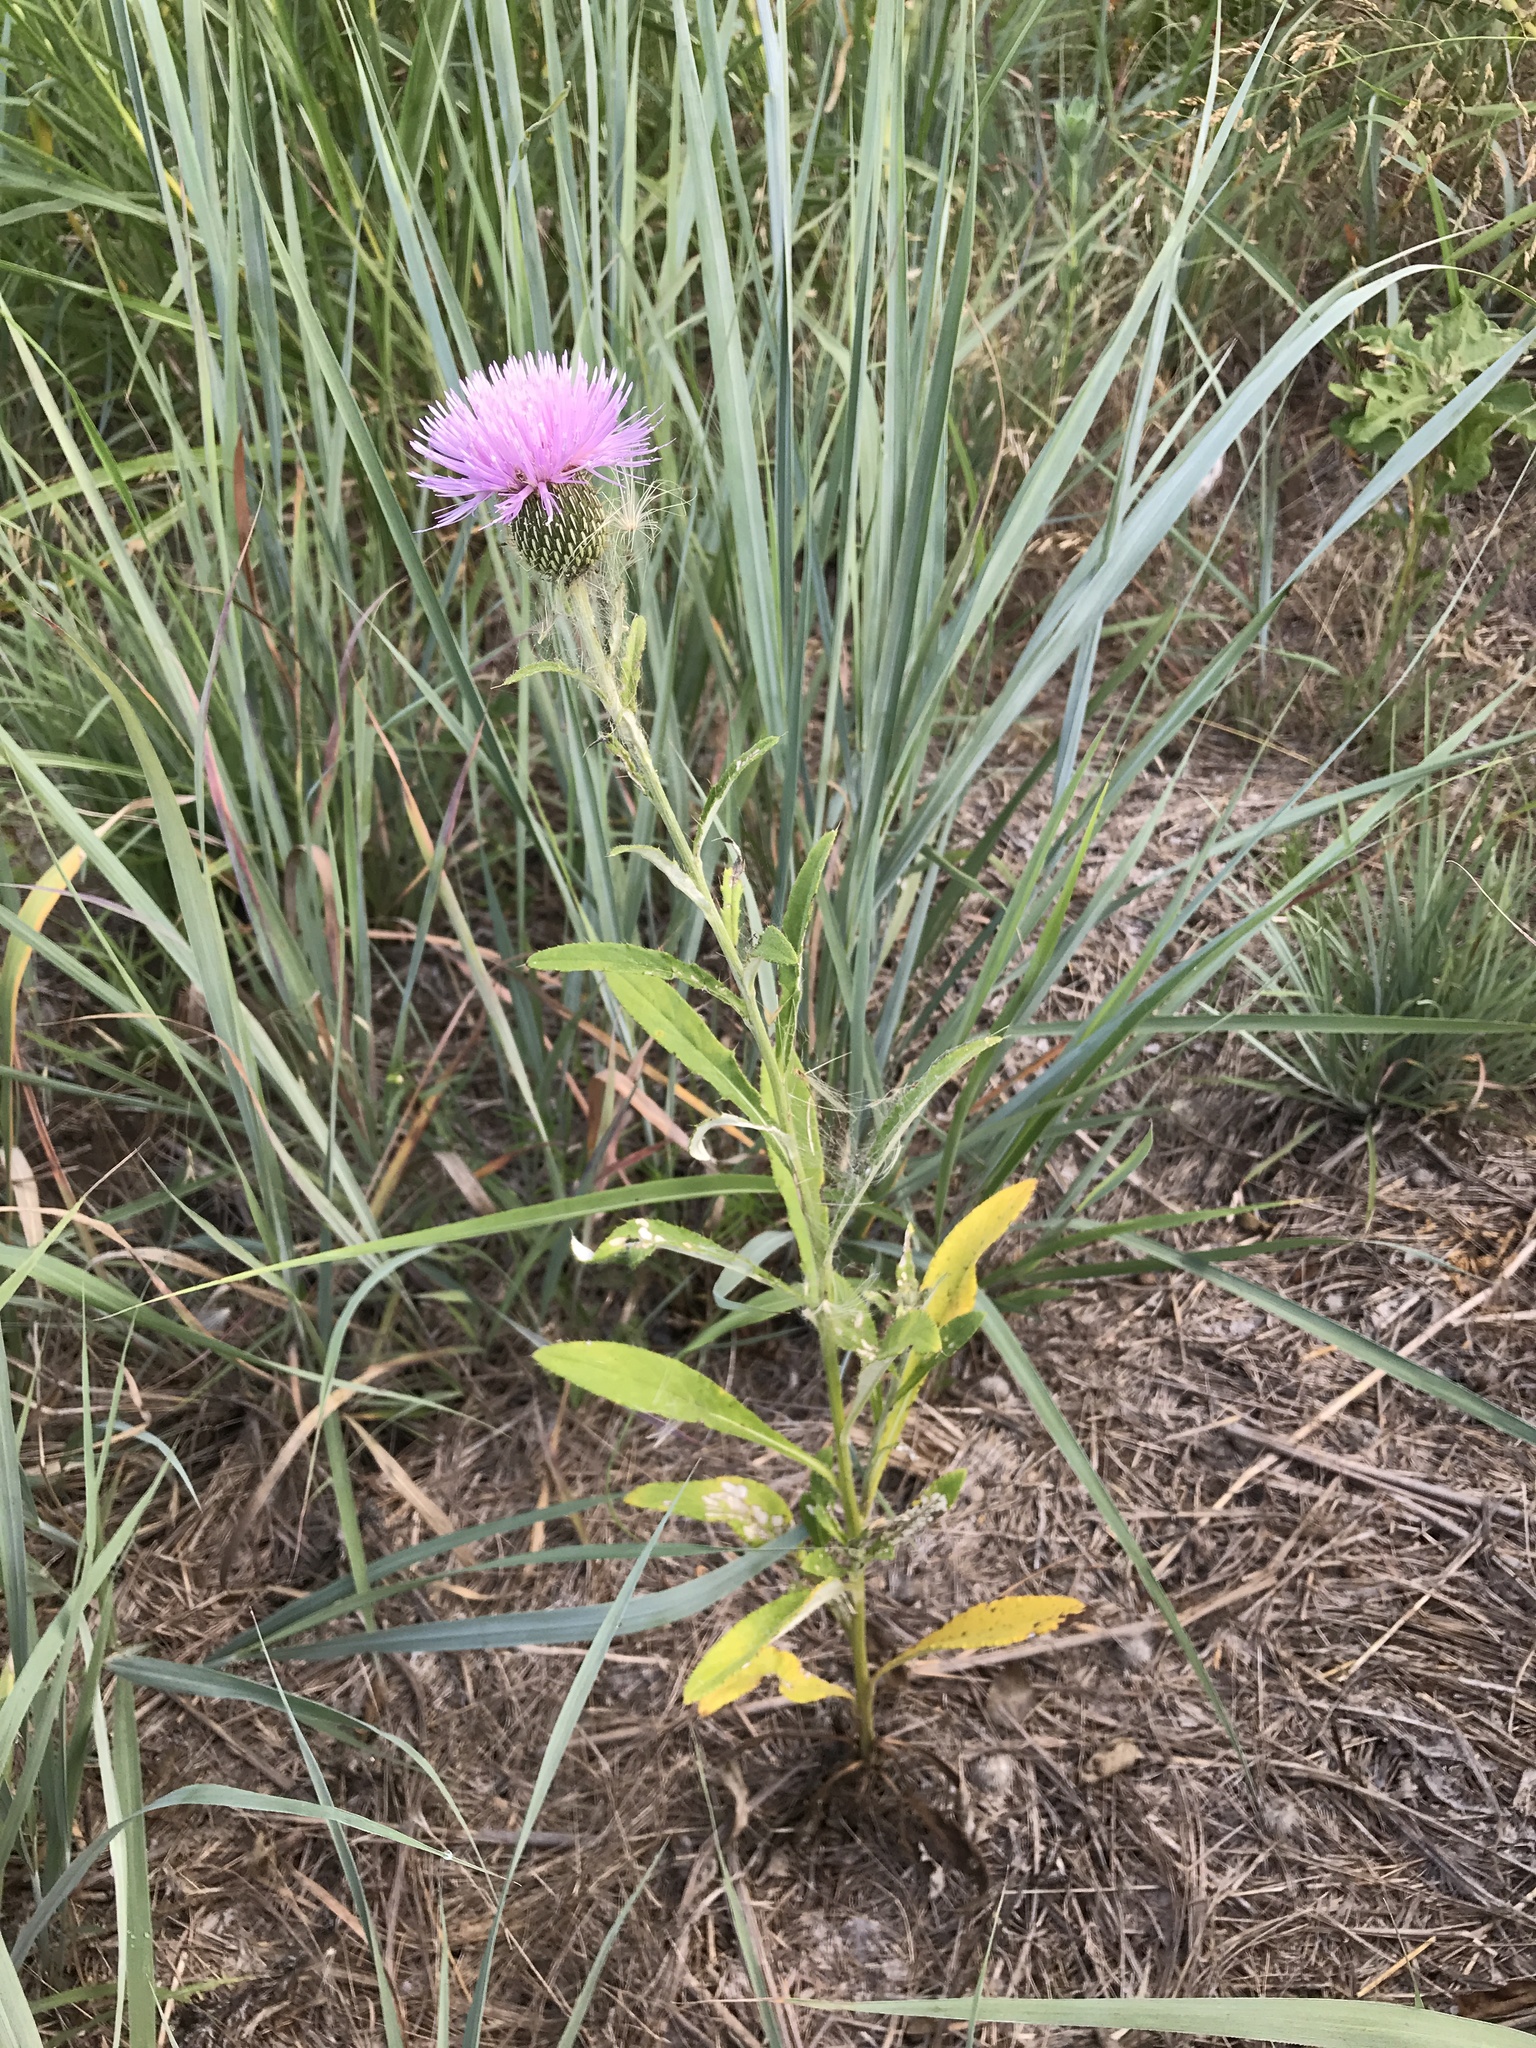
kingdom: Plantae
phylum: Tracheophyta
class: Magnoliopsida
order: Asterales
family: Asteraceae
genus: Cirsium
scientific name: Cirsium altissimum
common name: Roadside thistle
